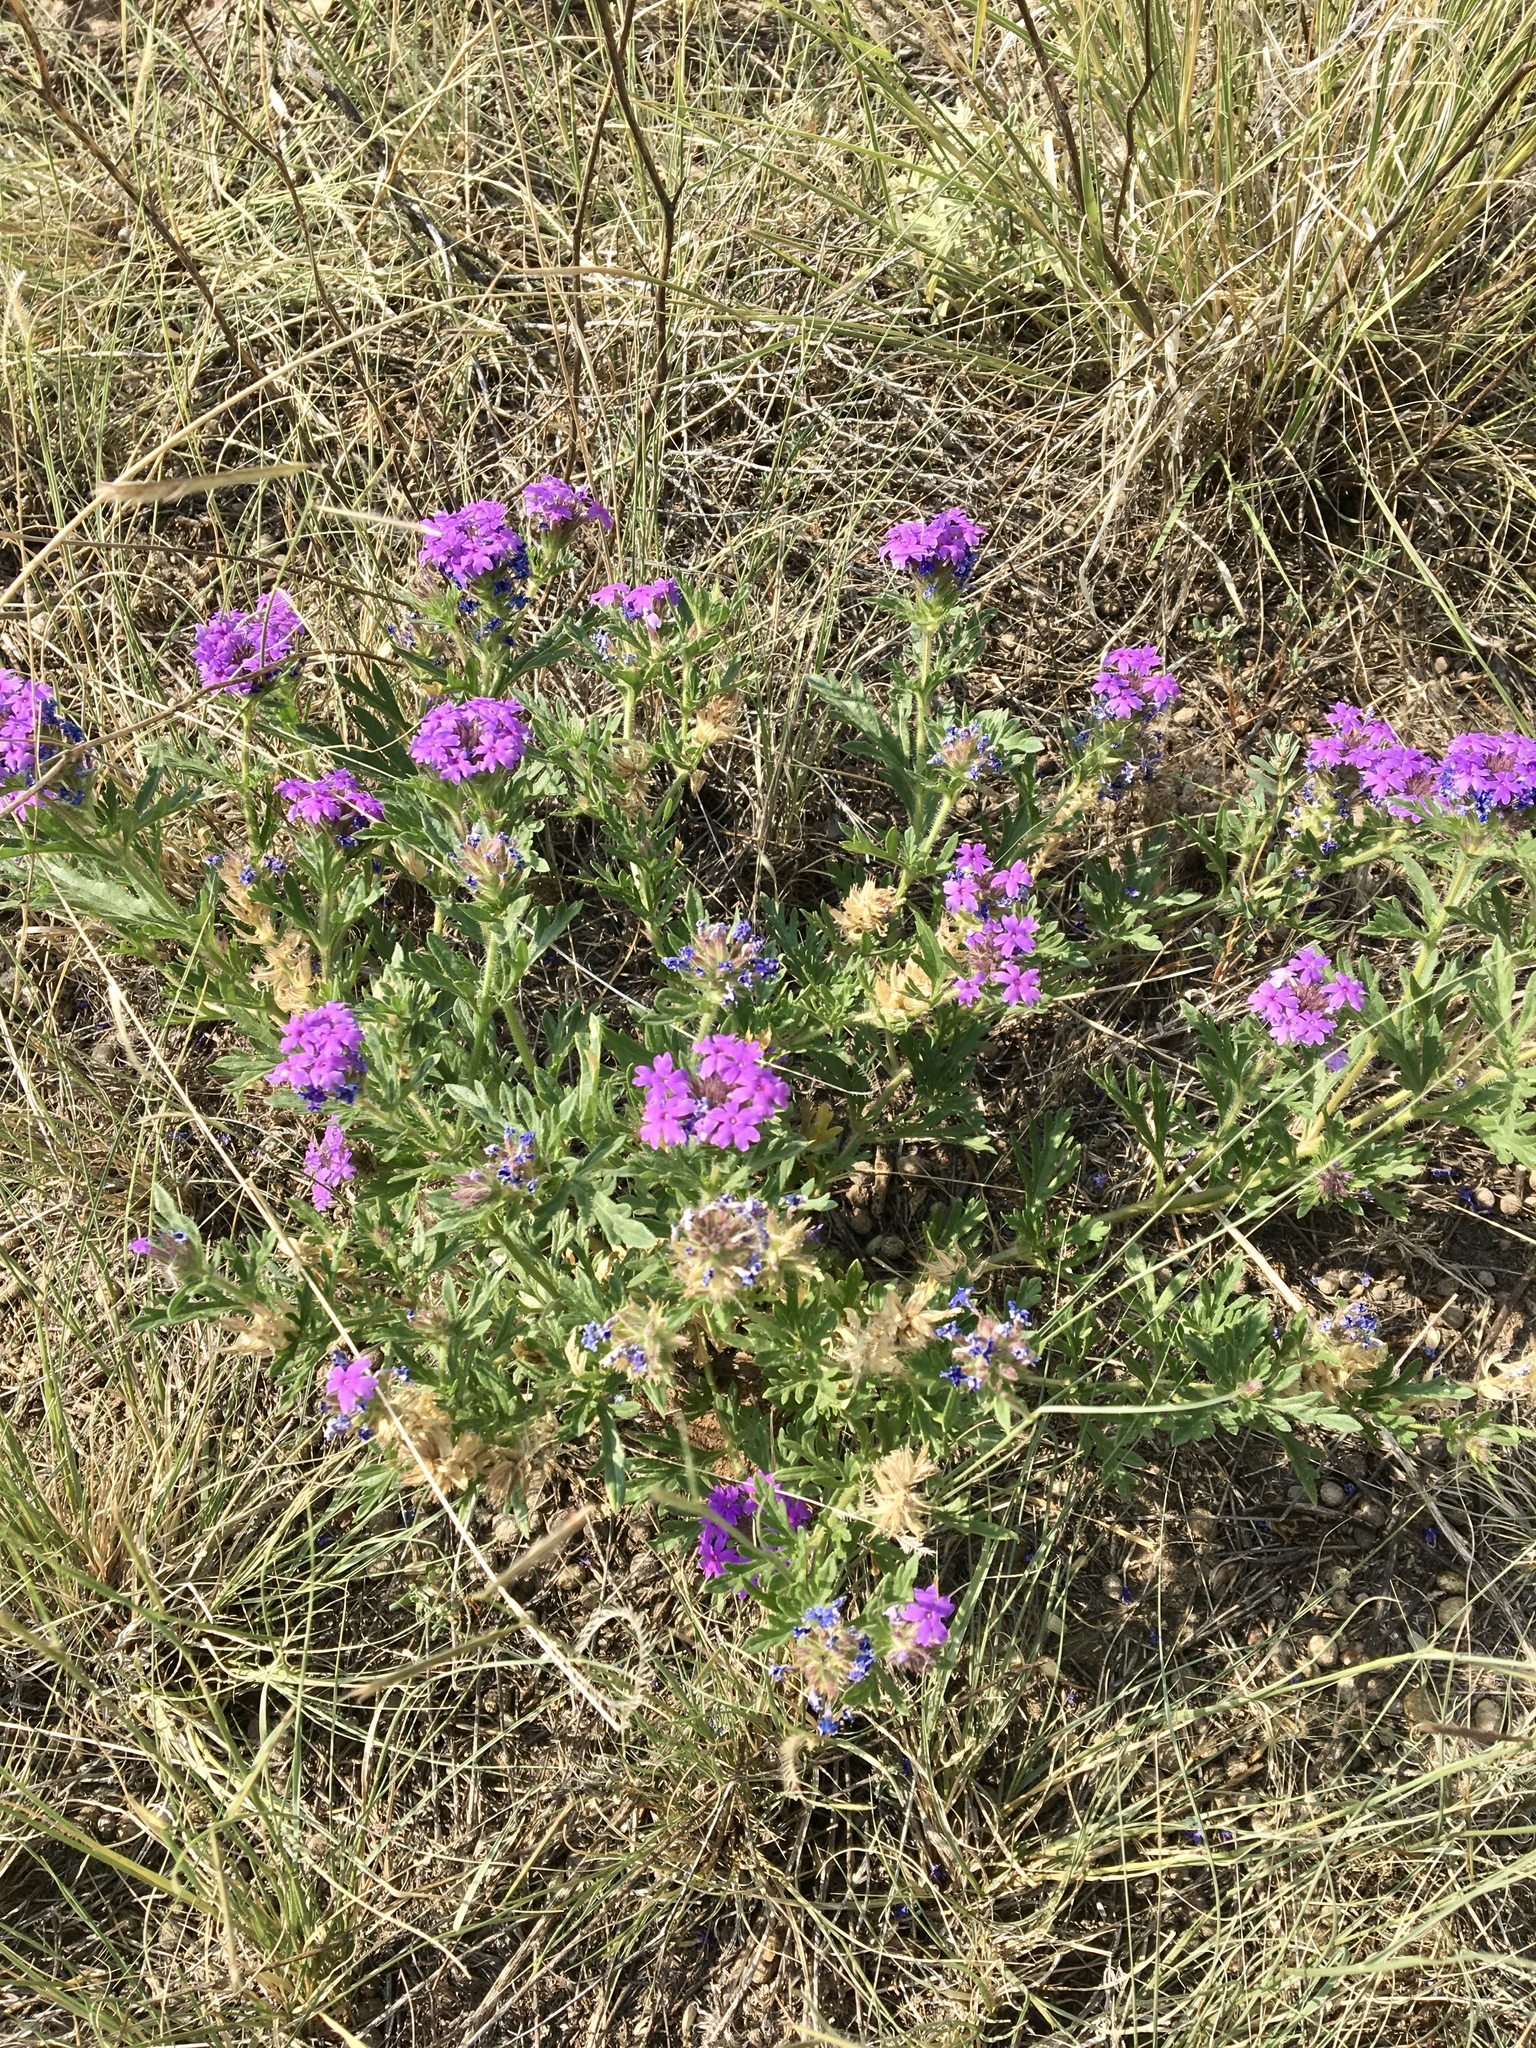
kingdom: Plantae
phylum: Tracheophyta
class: Magnoliopsida
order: Lamiales
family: Verbenaceae
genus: Verbena
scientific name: Verbena bipinnatifida
